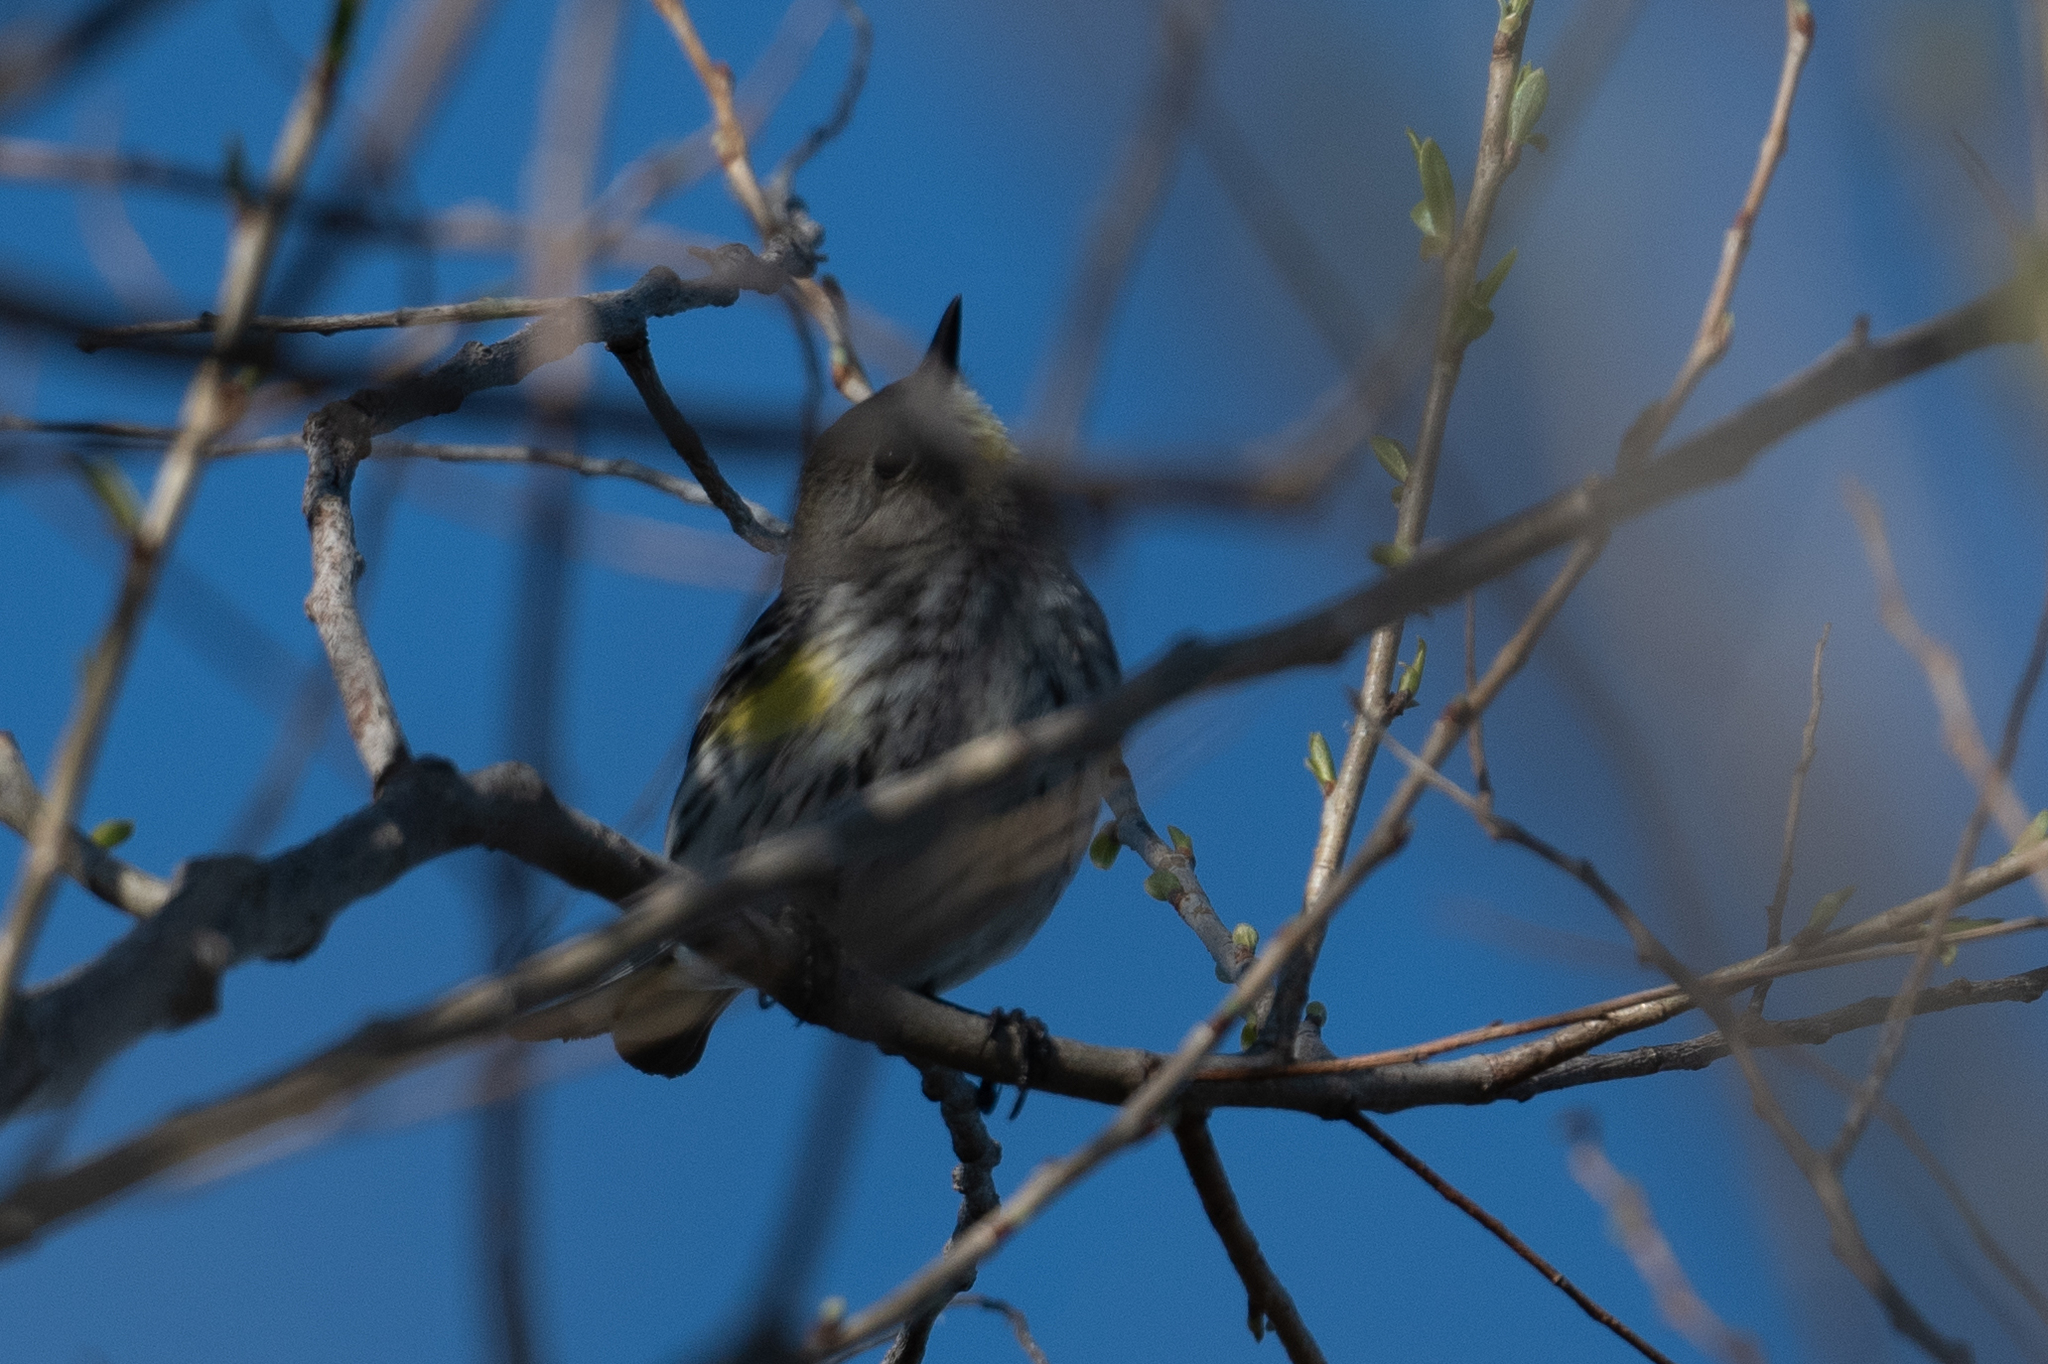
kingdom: Animalia
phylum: Chordata
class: Aves
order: Passeriformes
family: Parulidae
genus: Setophaga
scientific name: Setophaga coronata
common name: Myrtle warbler
